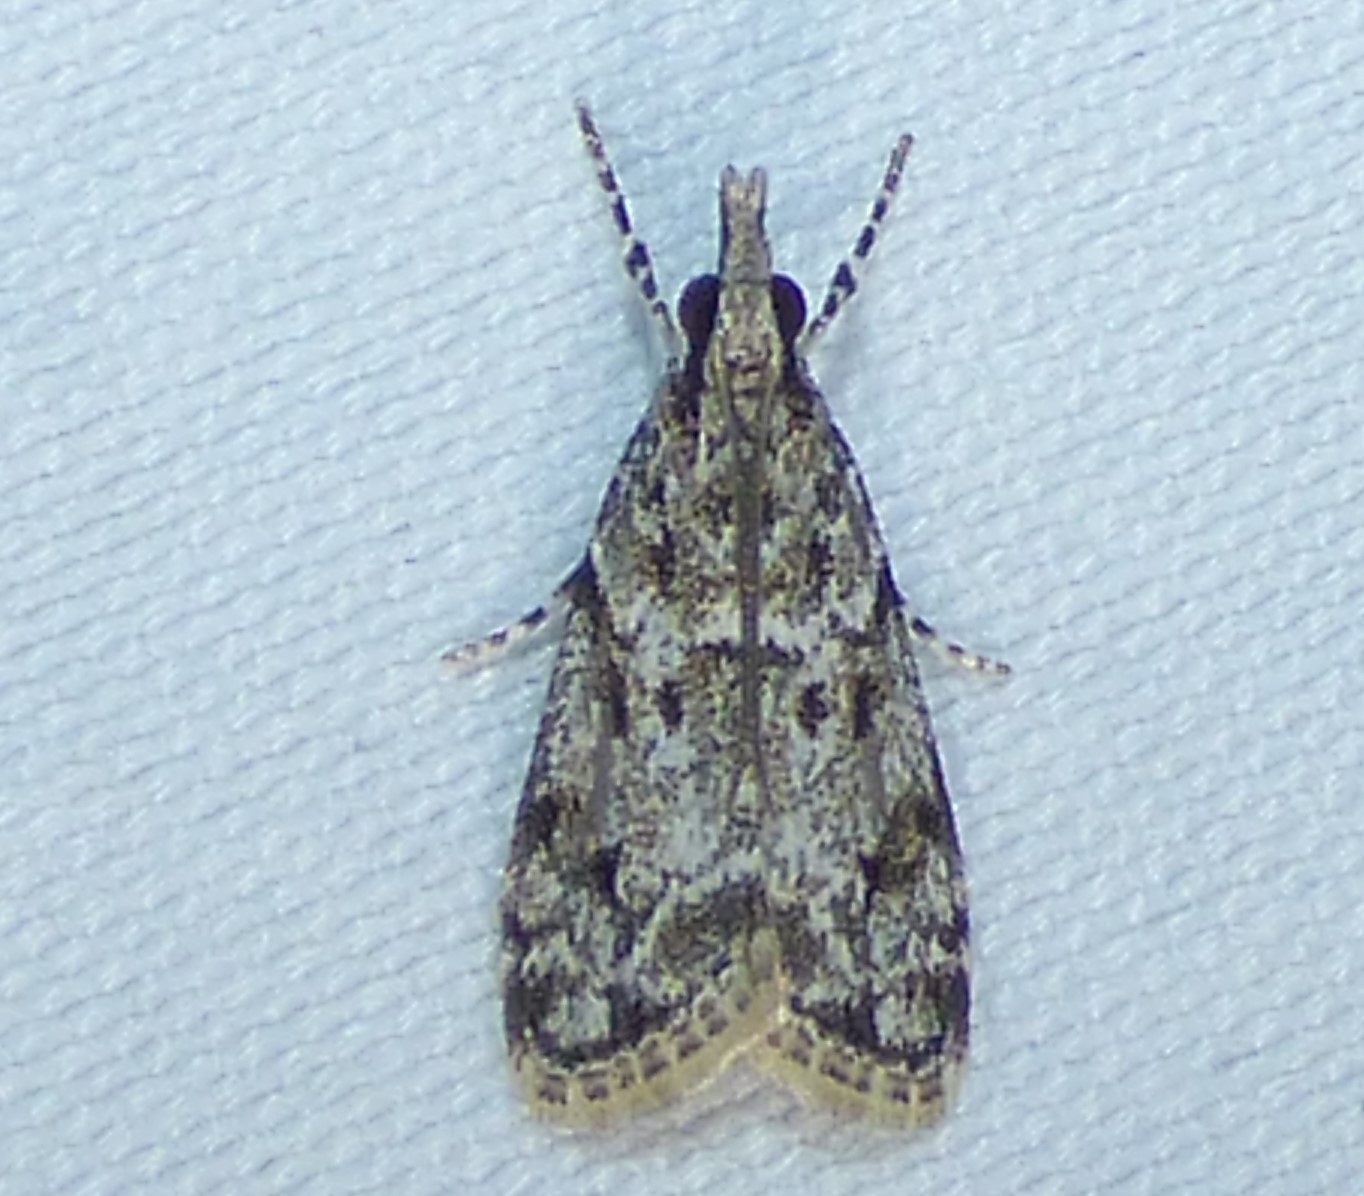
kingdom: Animalia
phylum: Arthropoda
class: Insecta
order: Lepidoptera
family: Crambidae
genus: Eudonia
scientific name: Eudonia heterosalis
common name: Mcdunnough's eudonia
